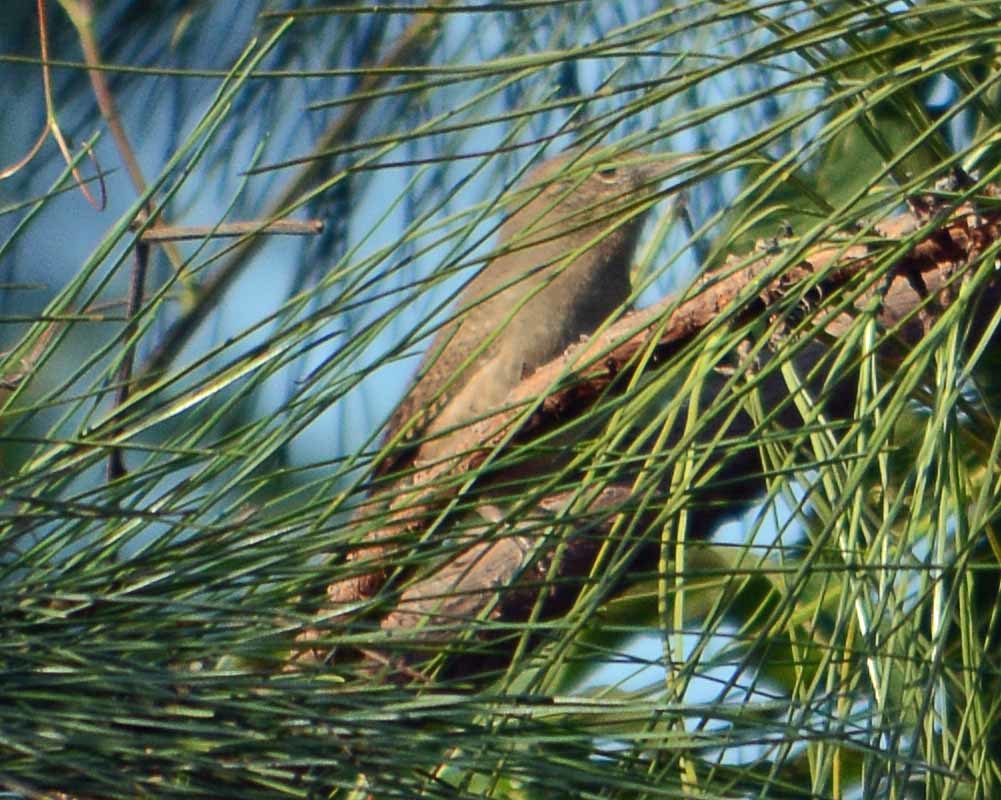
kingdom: Animalia
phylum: Chordata
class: Aves
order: Passeriformes
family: Troglodytidae
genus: Troglodytes
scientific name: Troglodytes aedon
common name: House wren
